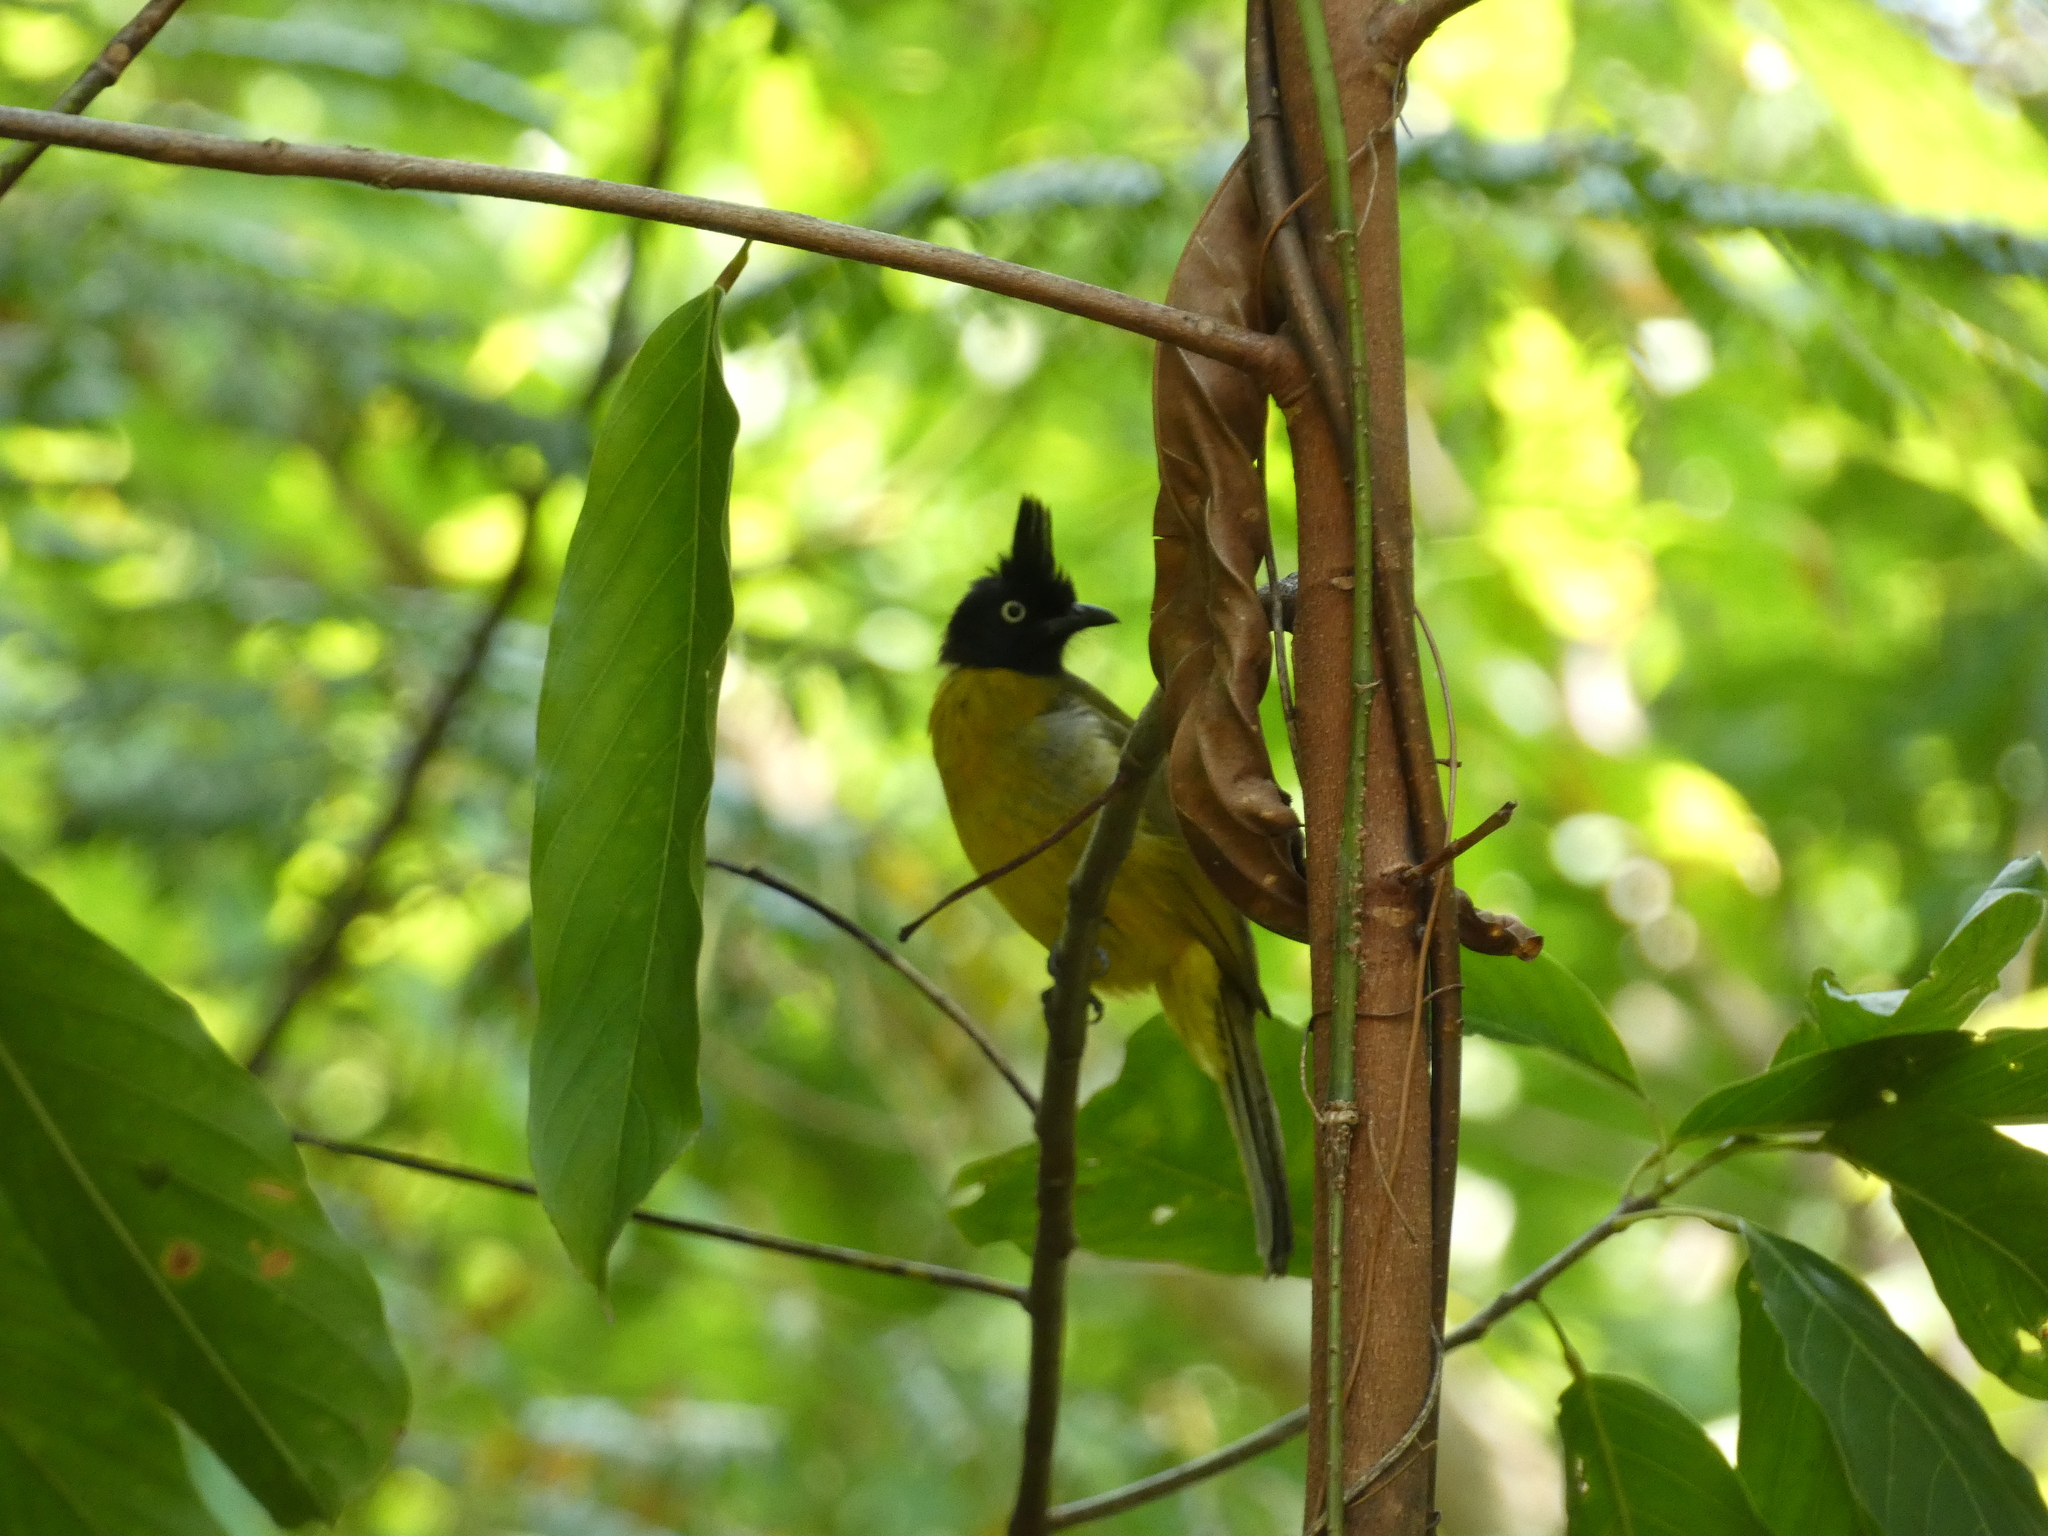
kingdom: Animalia
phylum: Chordata
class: Aves
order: Passeriformes
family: Pycnonotidae
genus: Pycnonotus
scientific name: Pycnonotus flaviventris
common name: Black-crested bulbul
